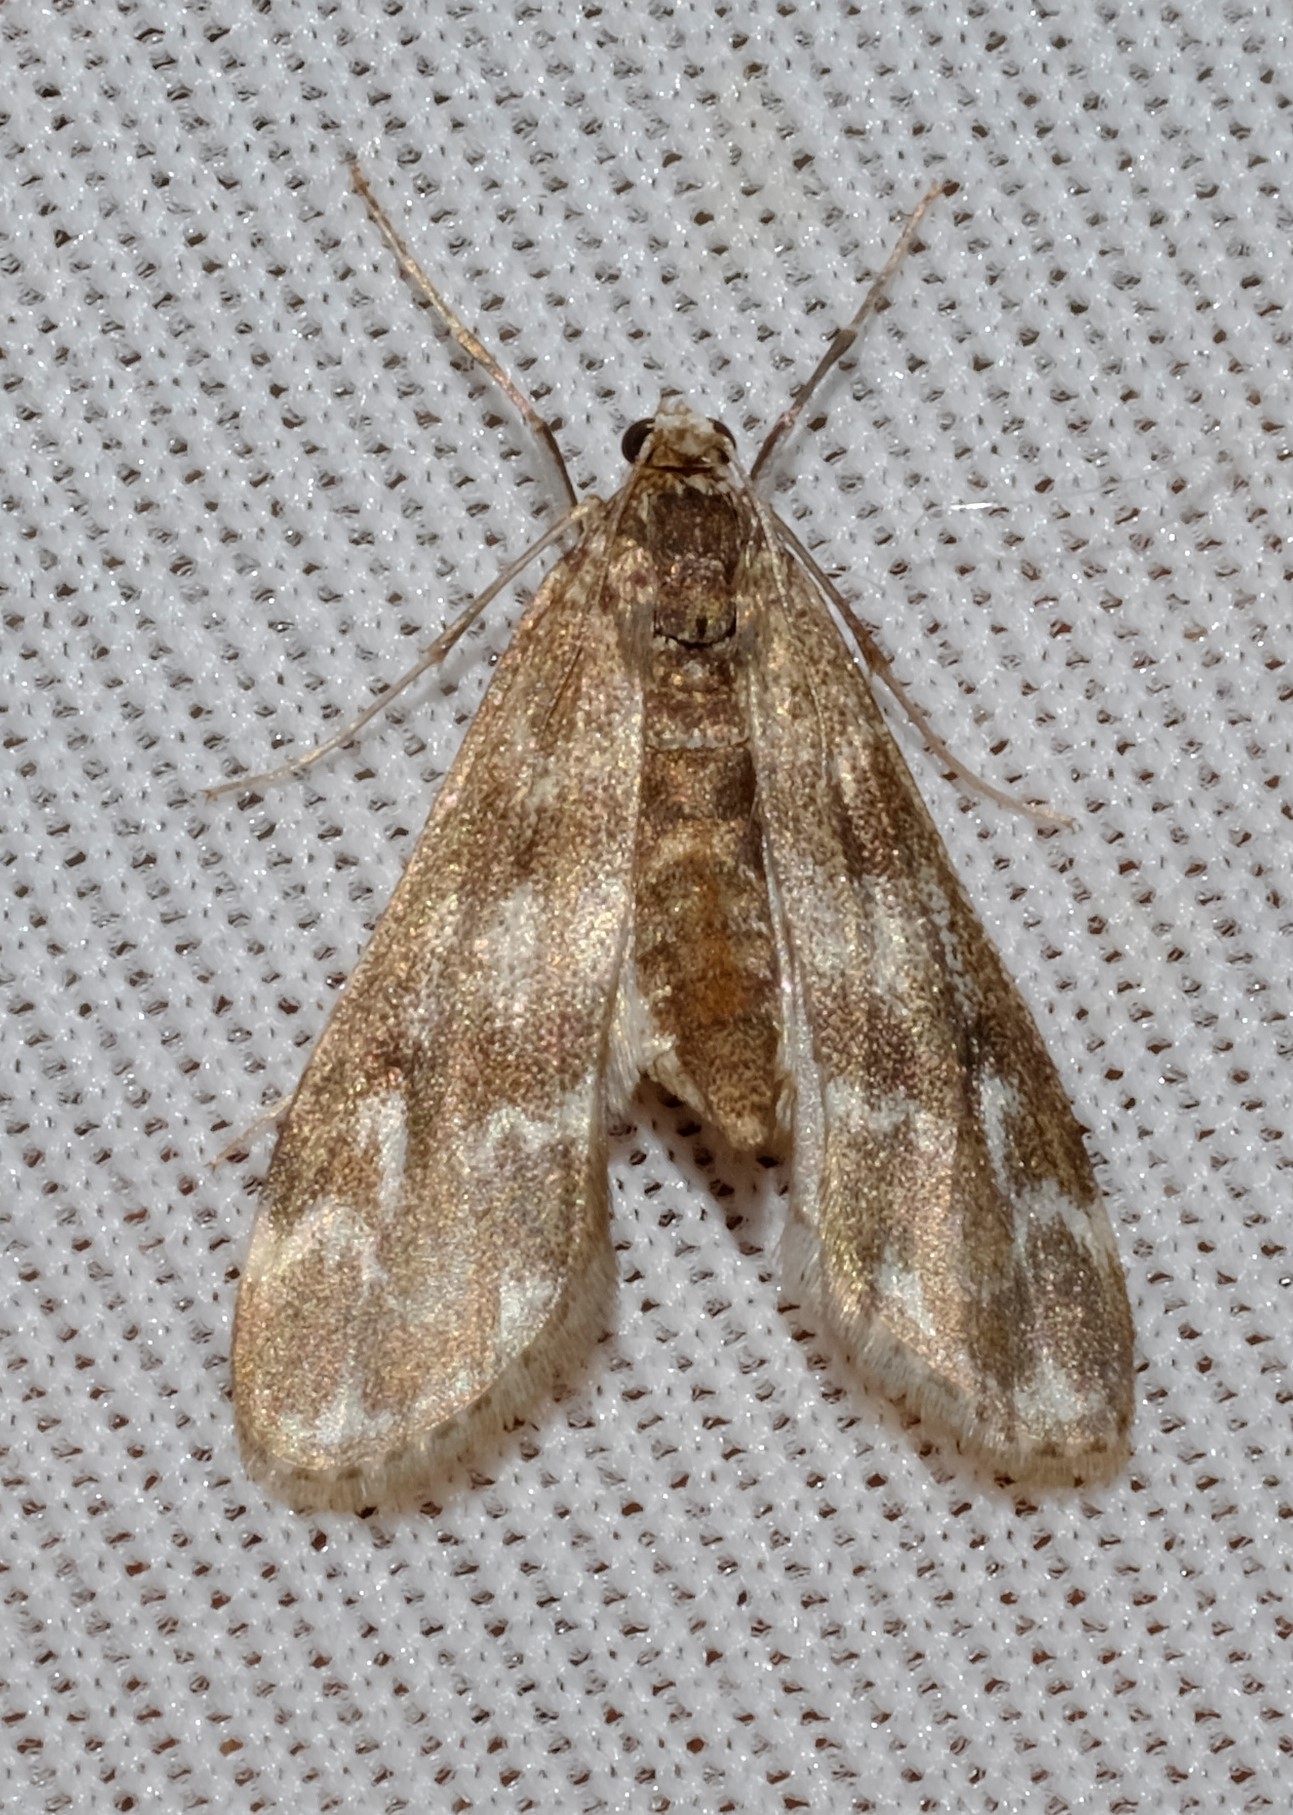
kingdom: Animalia
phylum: Arthropoda
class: Insecta
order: Lepidoptera
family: Crambidae
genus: Hygraula
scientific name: Hygraula nitens
